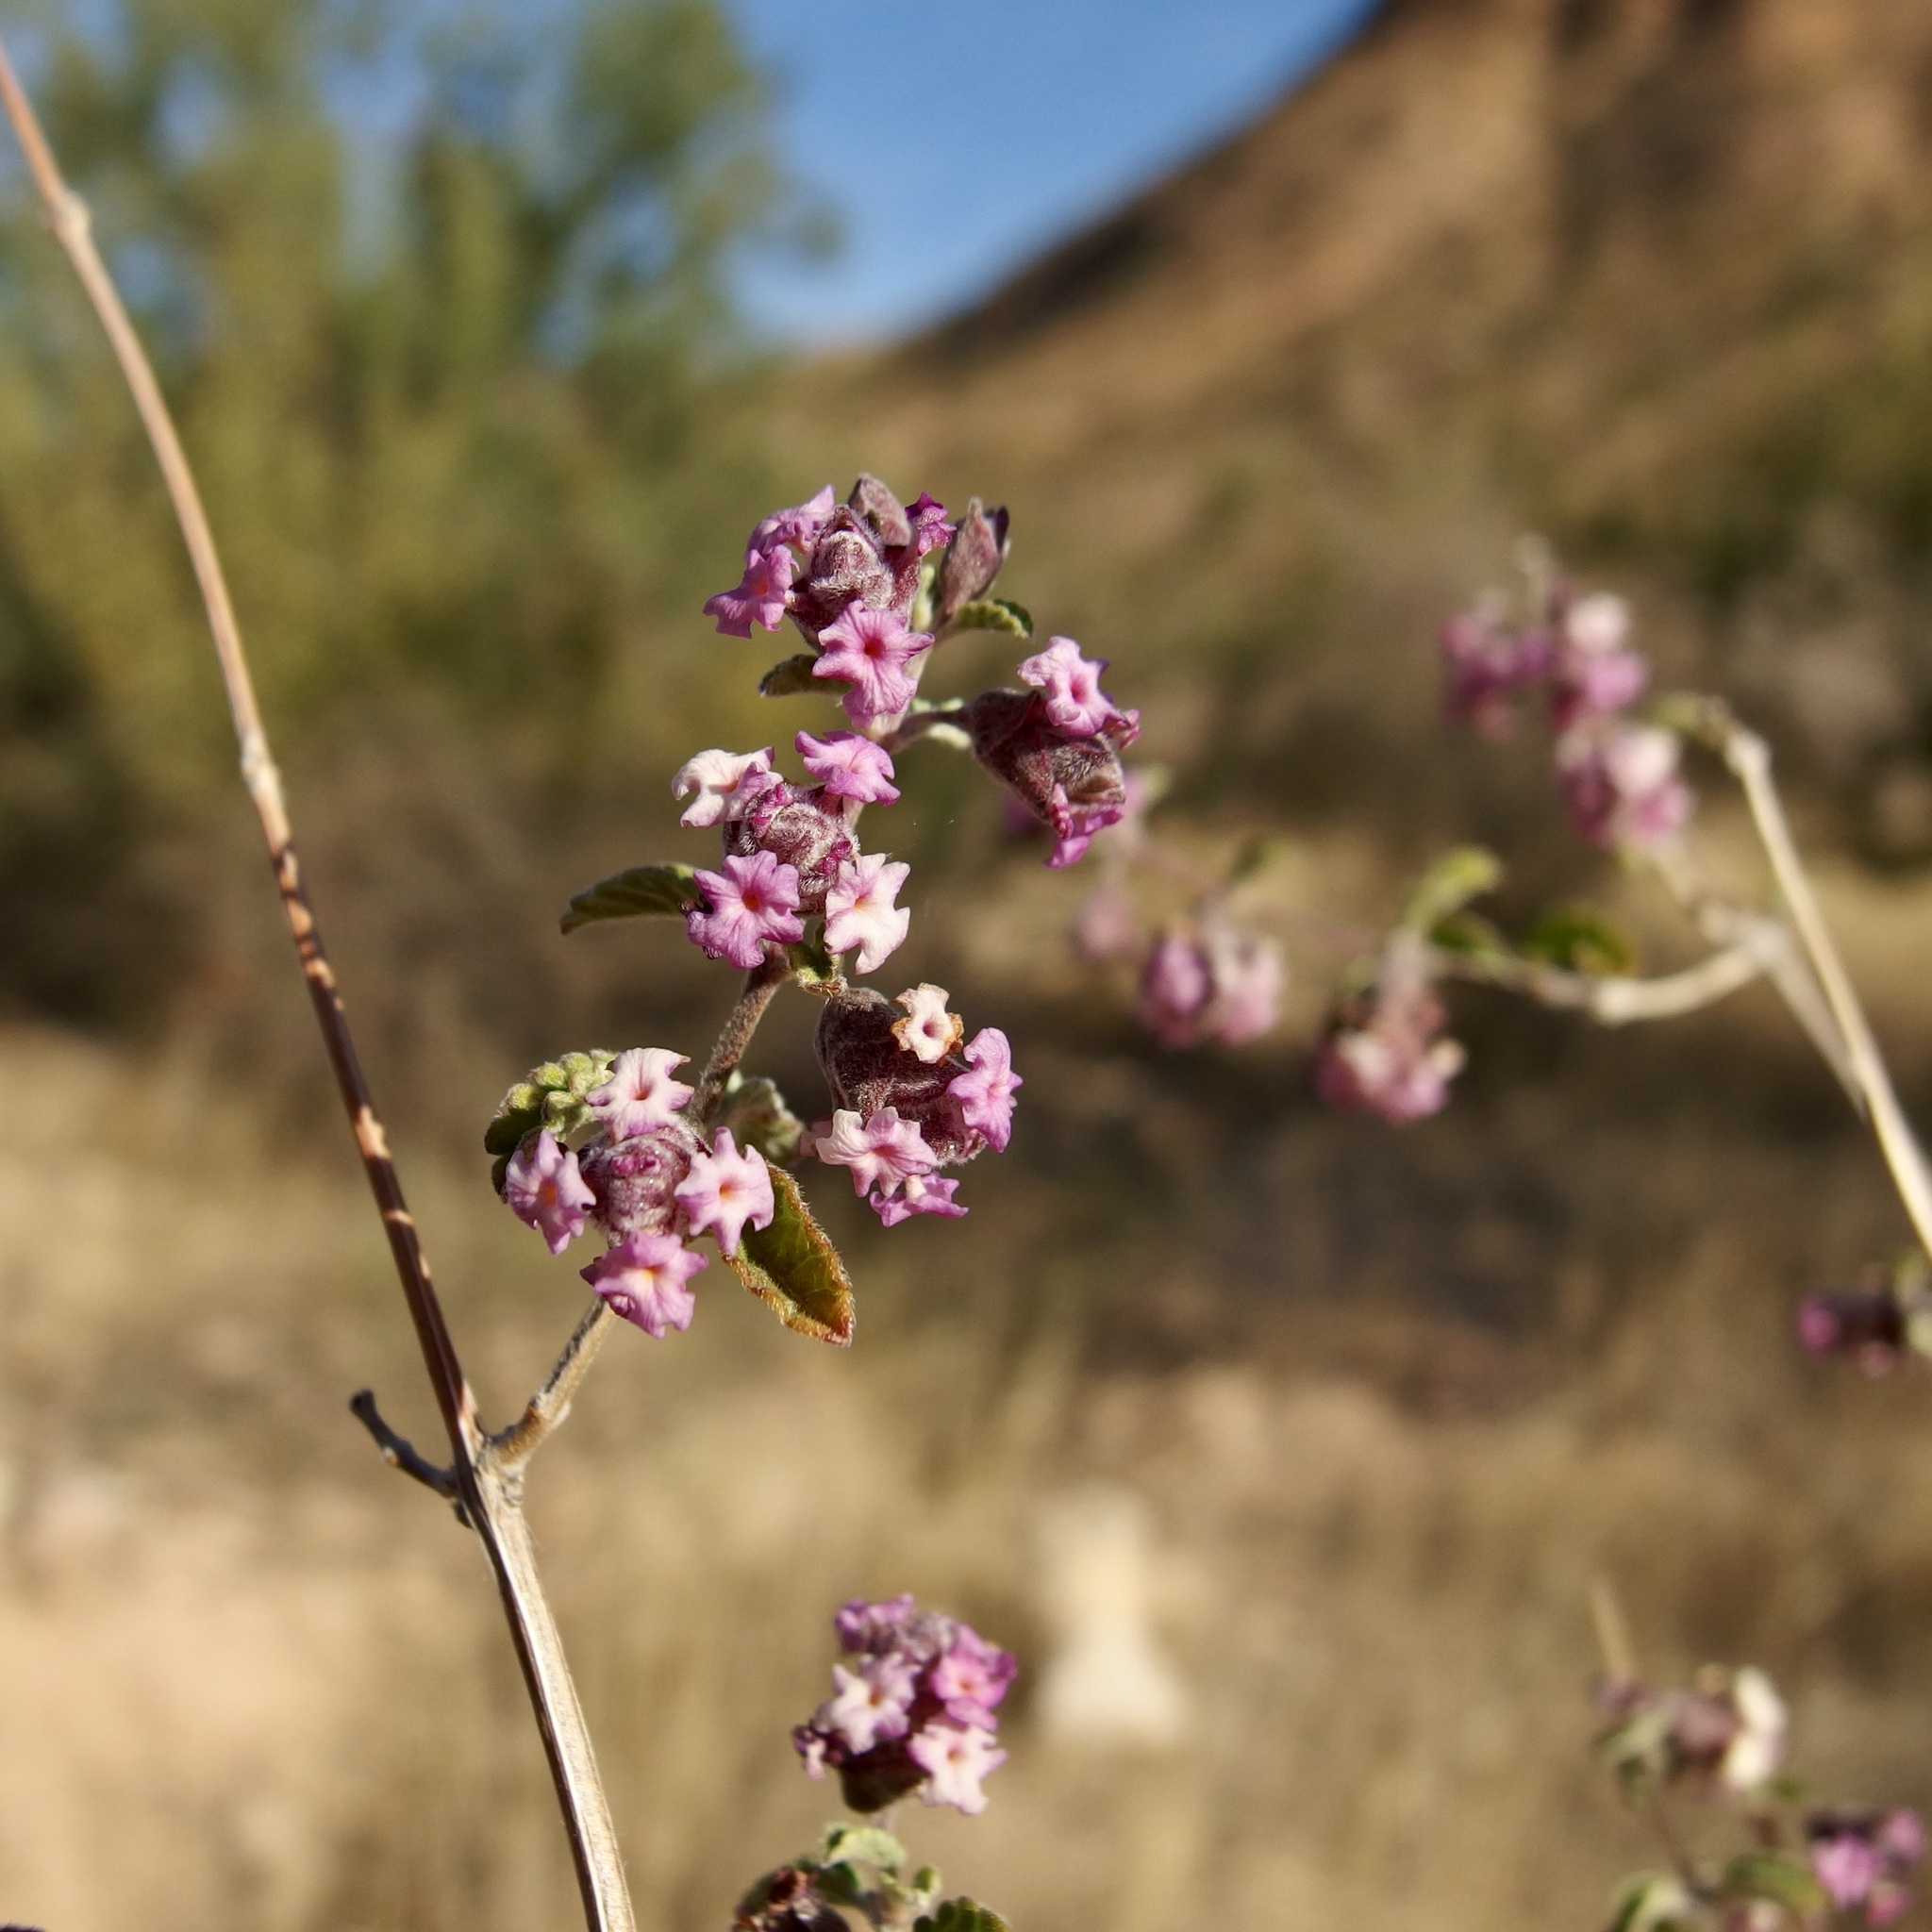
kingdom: Plantae
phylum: Tracheophyta
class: Magnoliopsida
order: Lamiales
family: Verbenaceae
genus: Lippia
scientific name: Lippia origanoides
